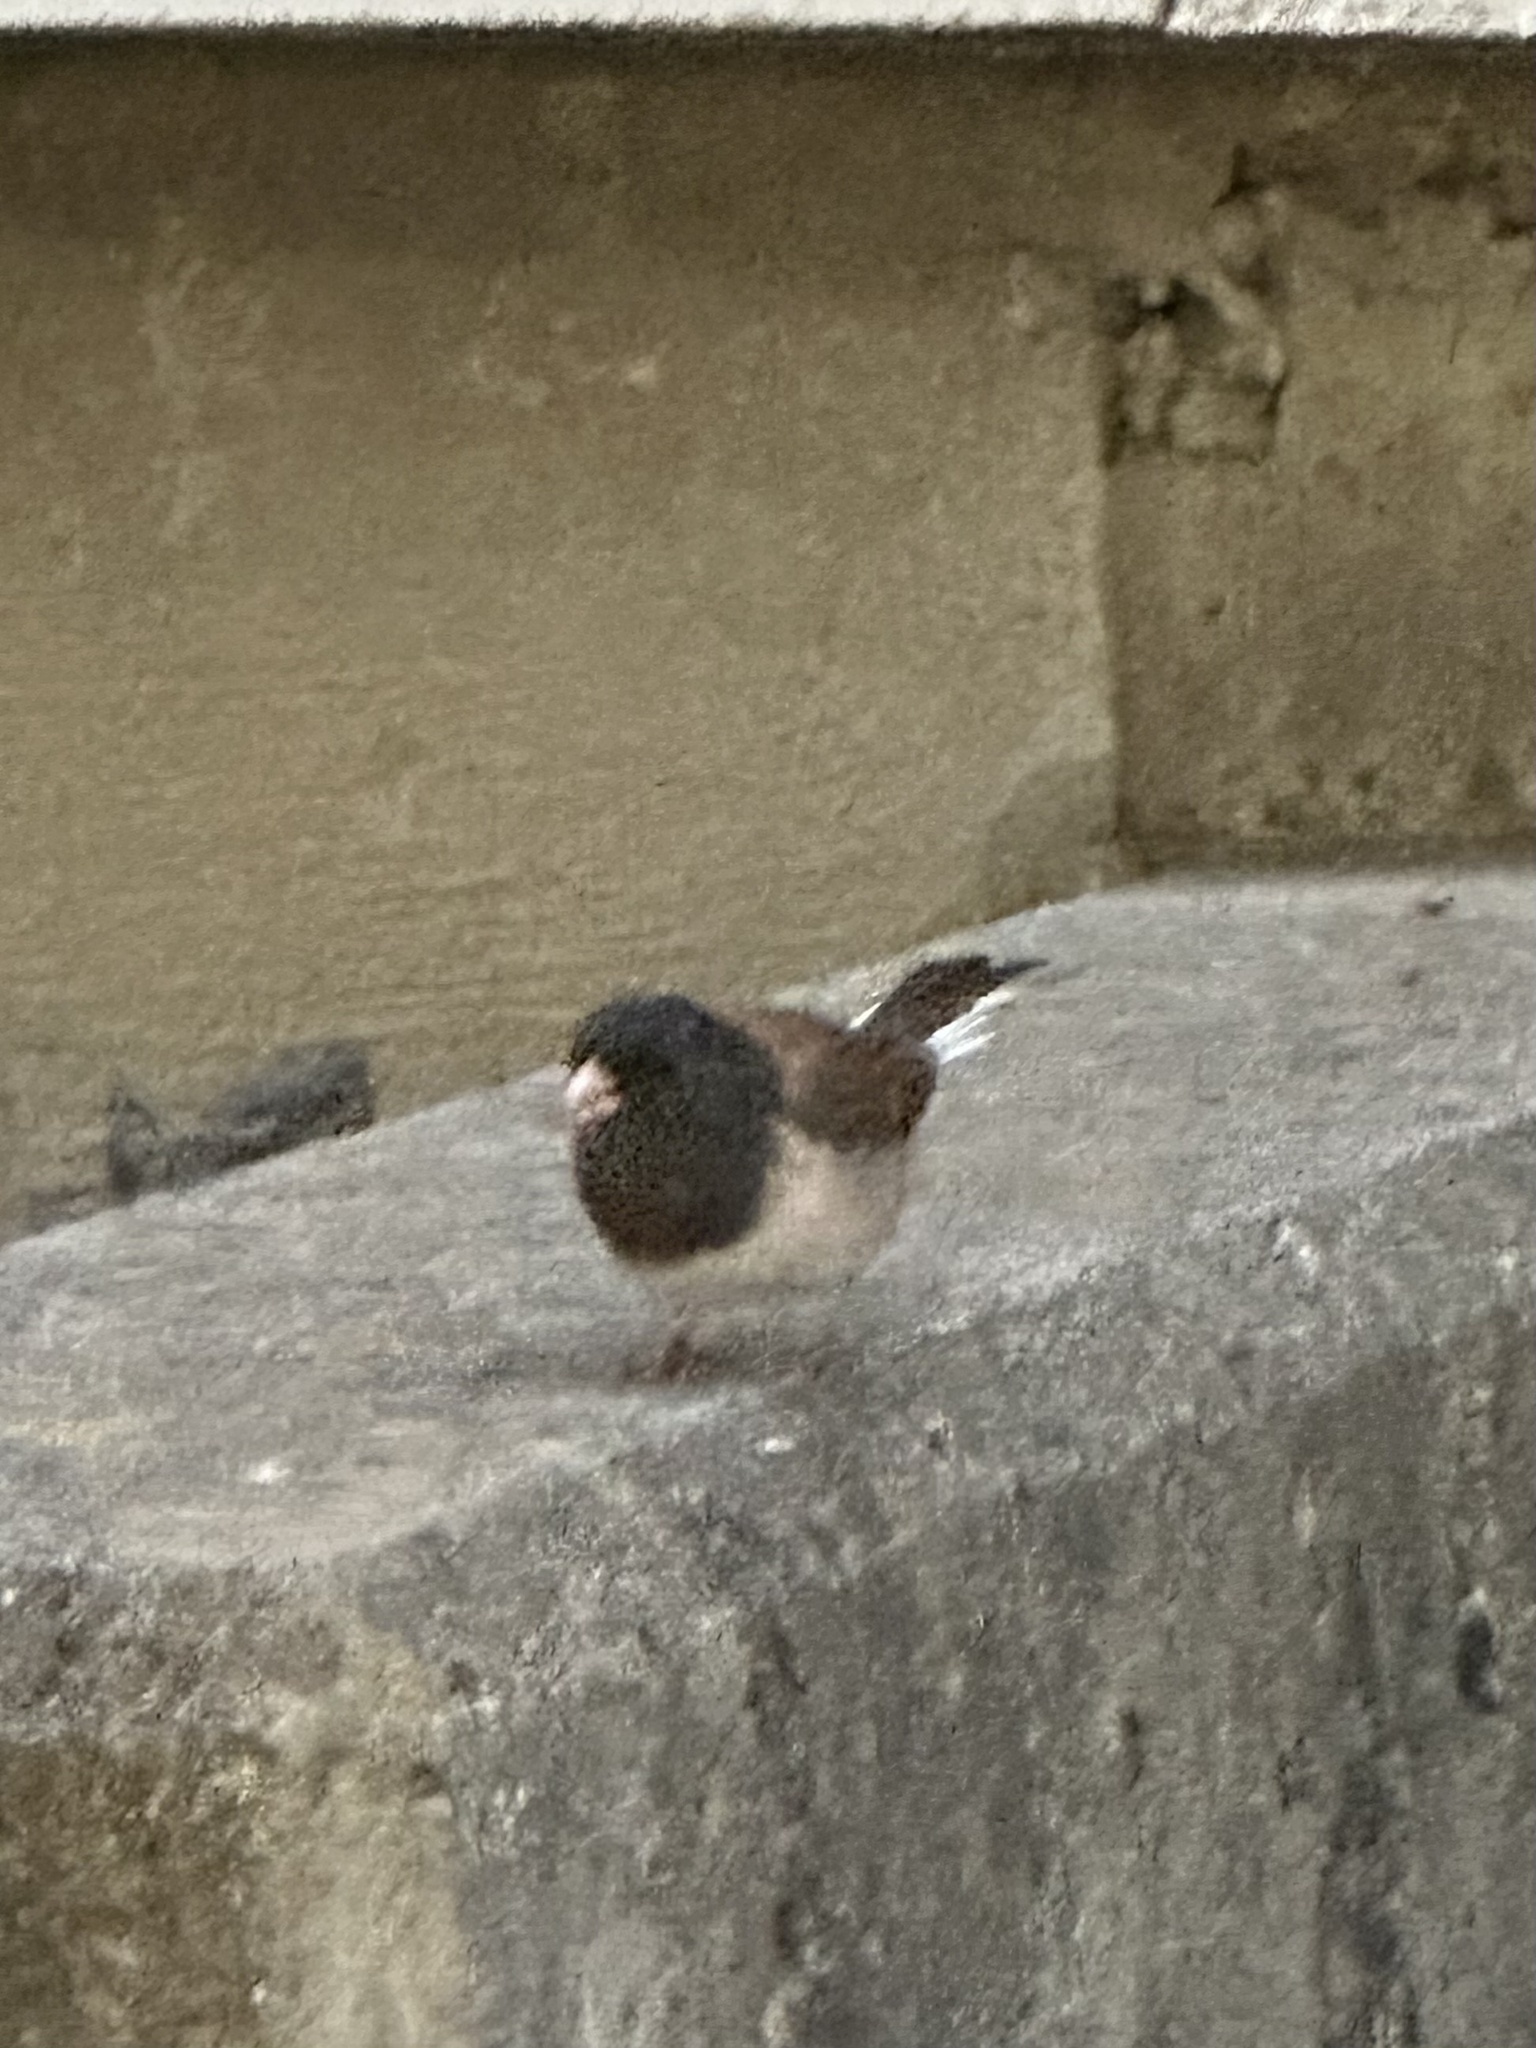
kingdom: Animalia
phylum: Chordata
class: Aves
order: Passeriformes
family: Passerellidae
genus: Junco
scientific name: Junco hyemalis
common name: Dark-eyed junco
